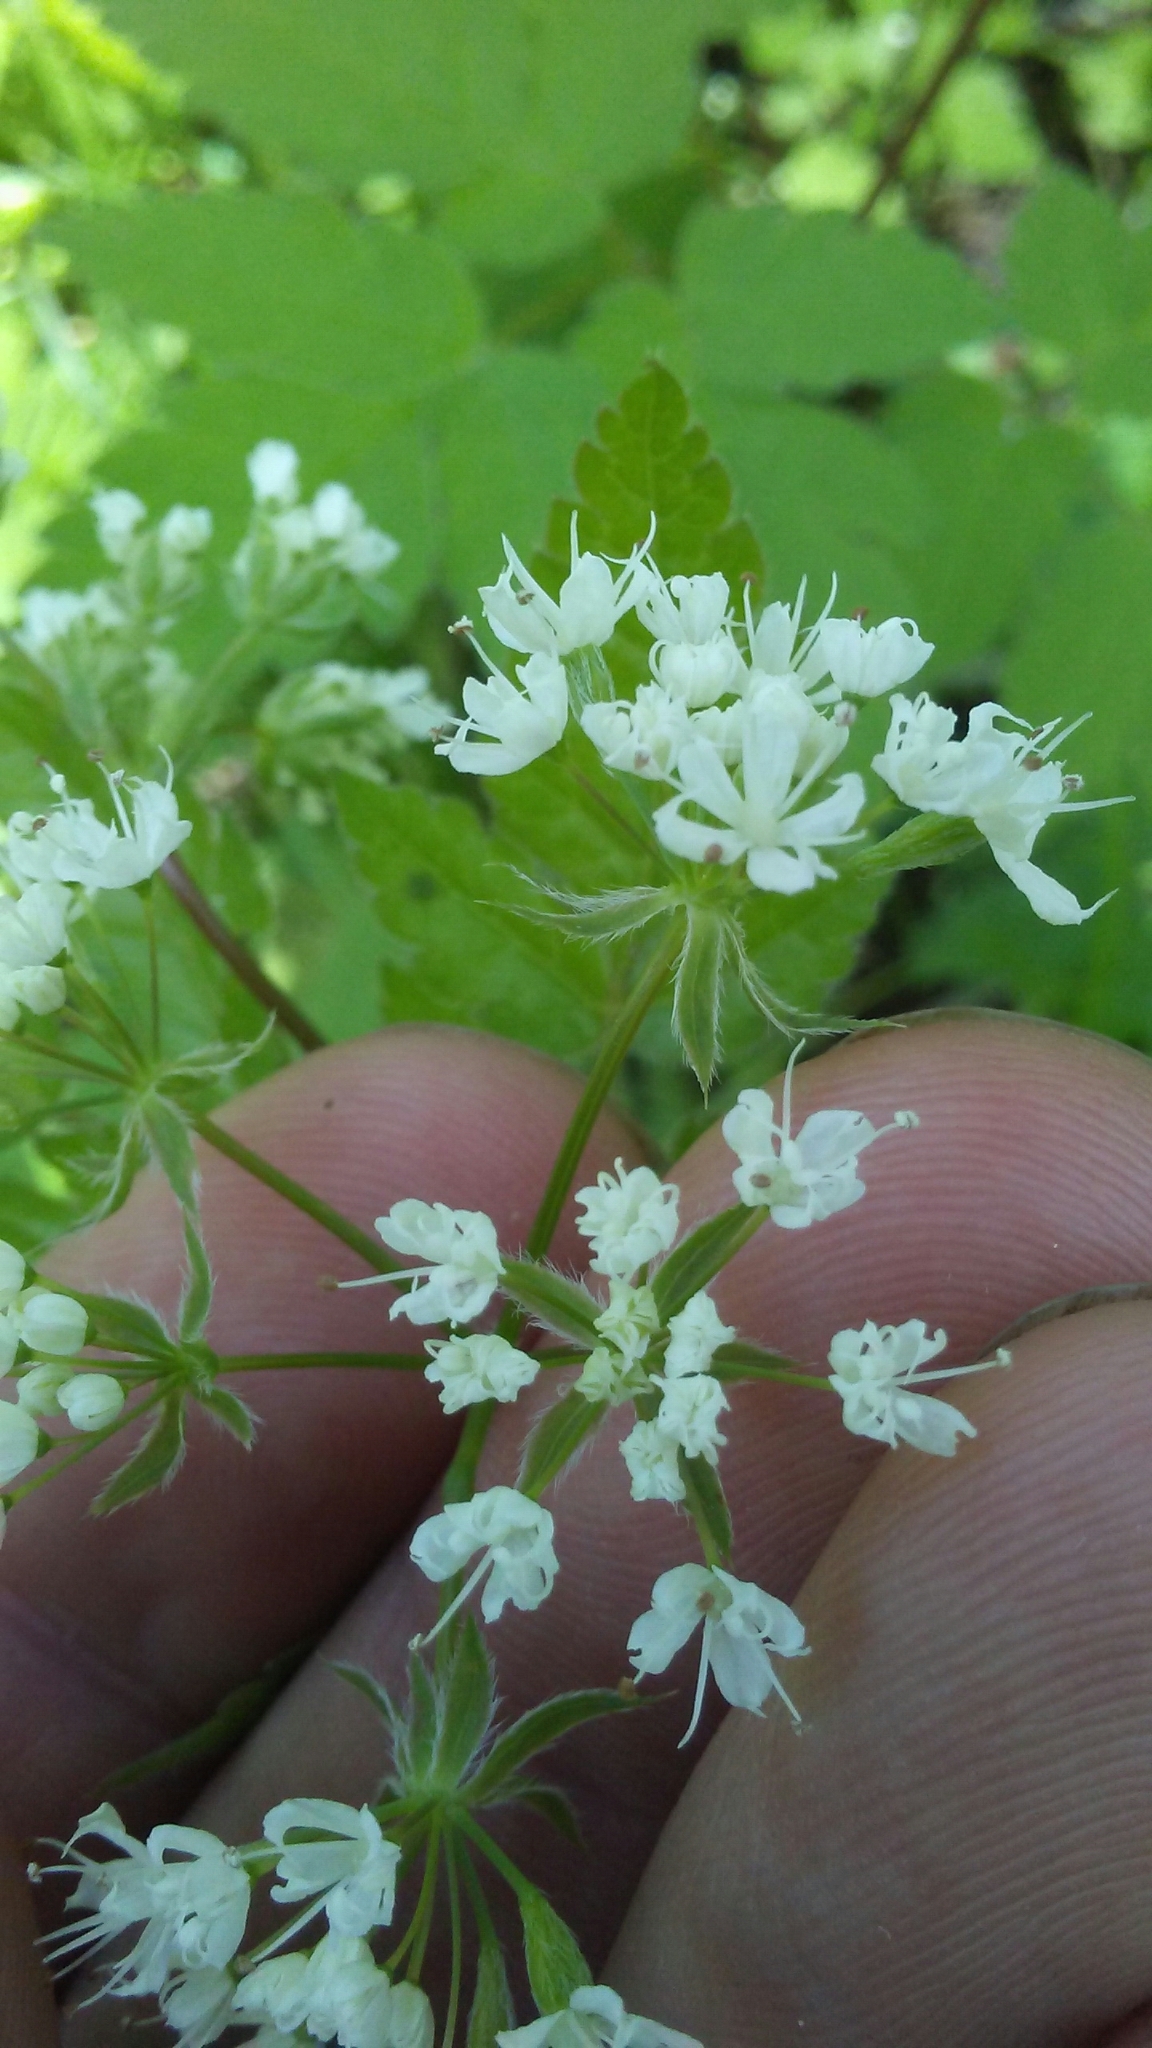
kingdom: Plantae
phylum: Tracheophyta
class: Magnoliopsida
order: Apiales
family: Apiaceae
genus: Osmorhiza
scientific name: Osmorhiza longistylis
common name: Smooth sweet cicely
